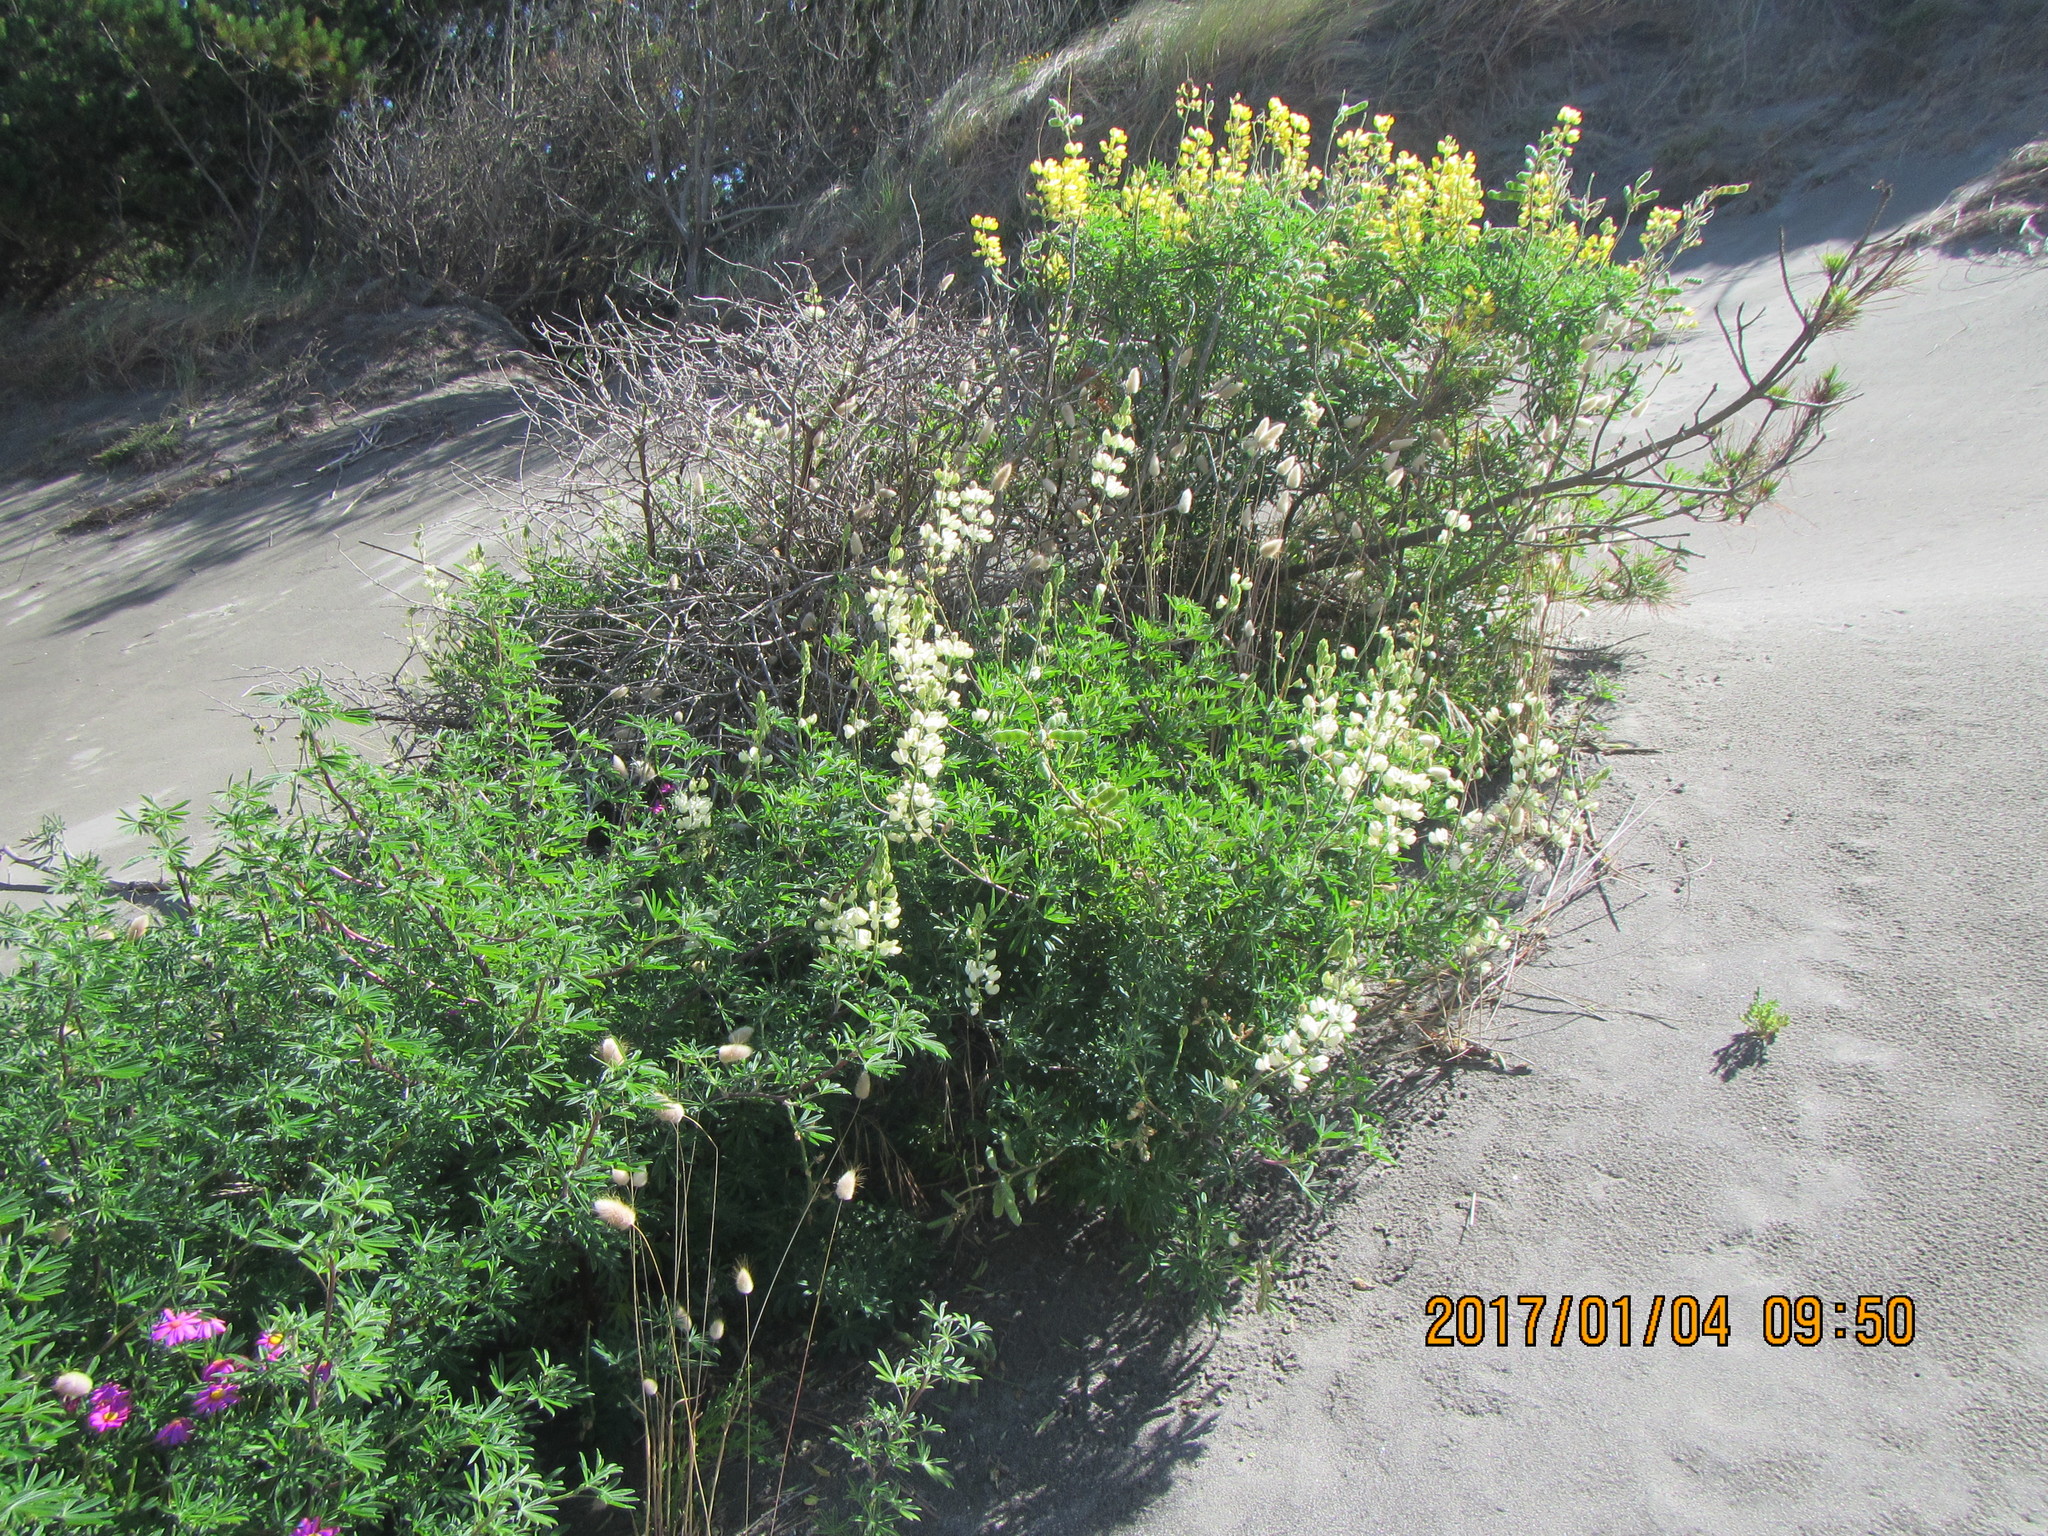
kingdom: Plantae
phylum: Tracheophyta
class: Magnoliopsida
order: Fabales
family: Fabaceae
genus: Lupinus
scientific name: Lupinus arboreus
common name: Yellow bush lupine
